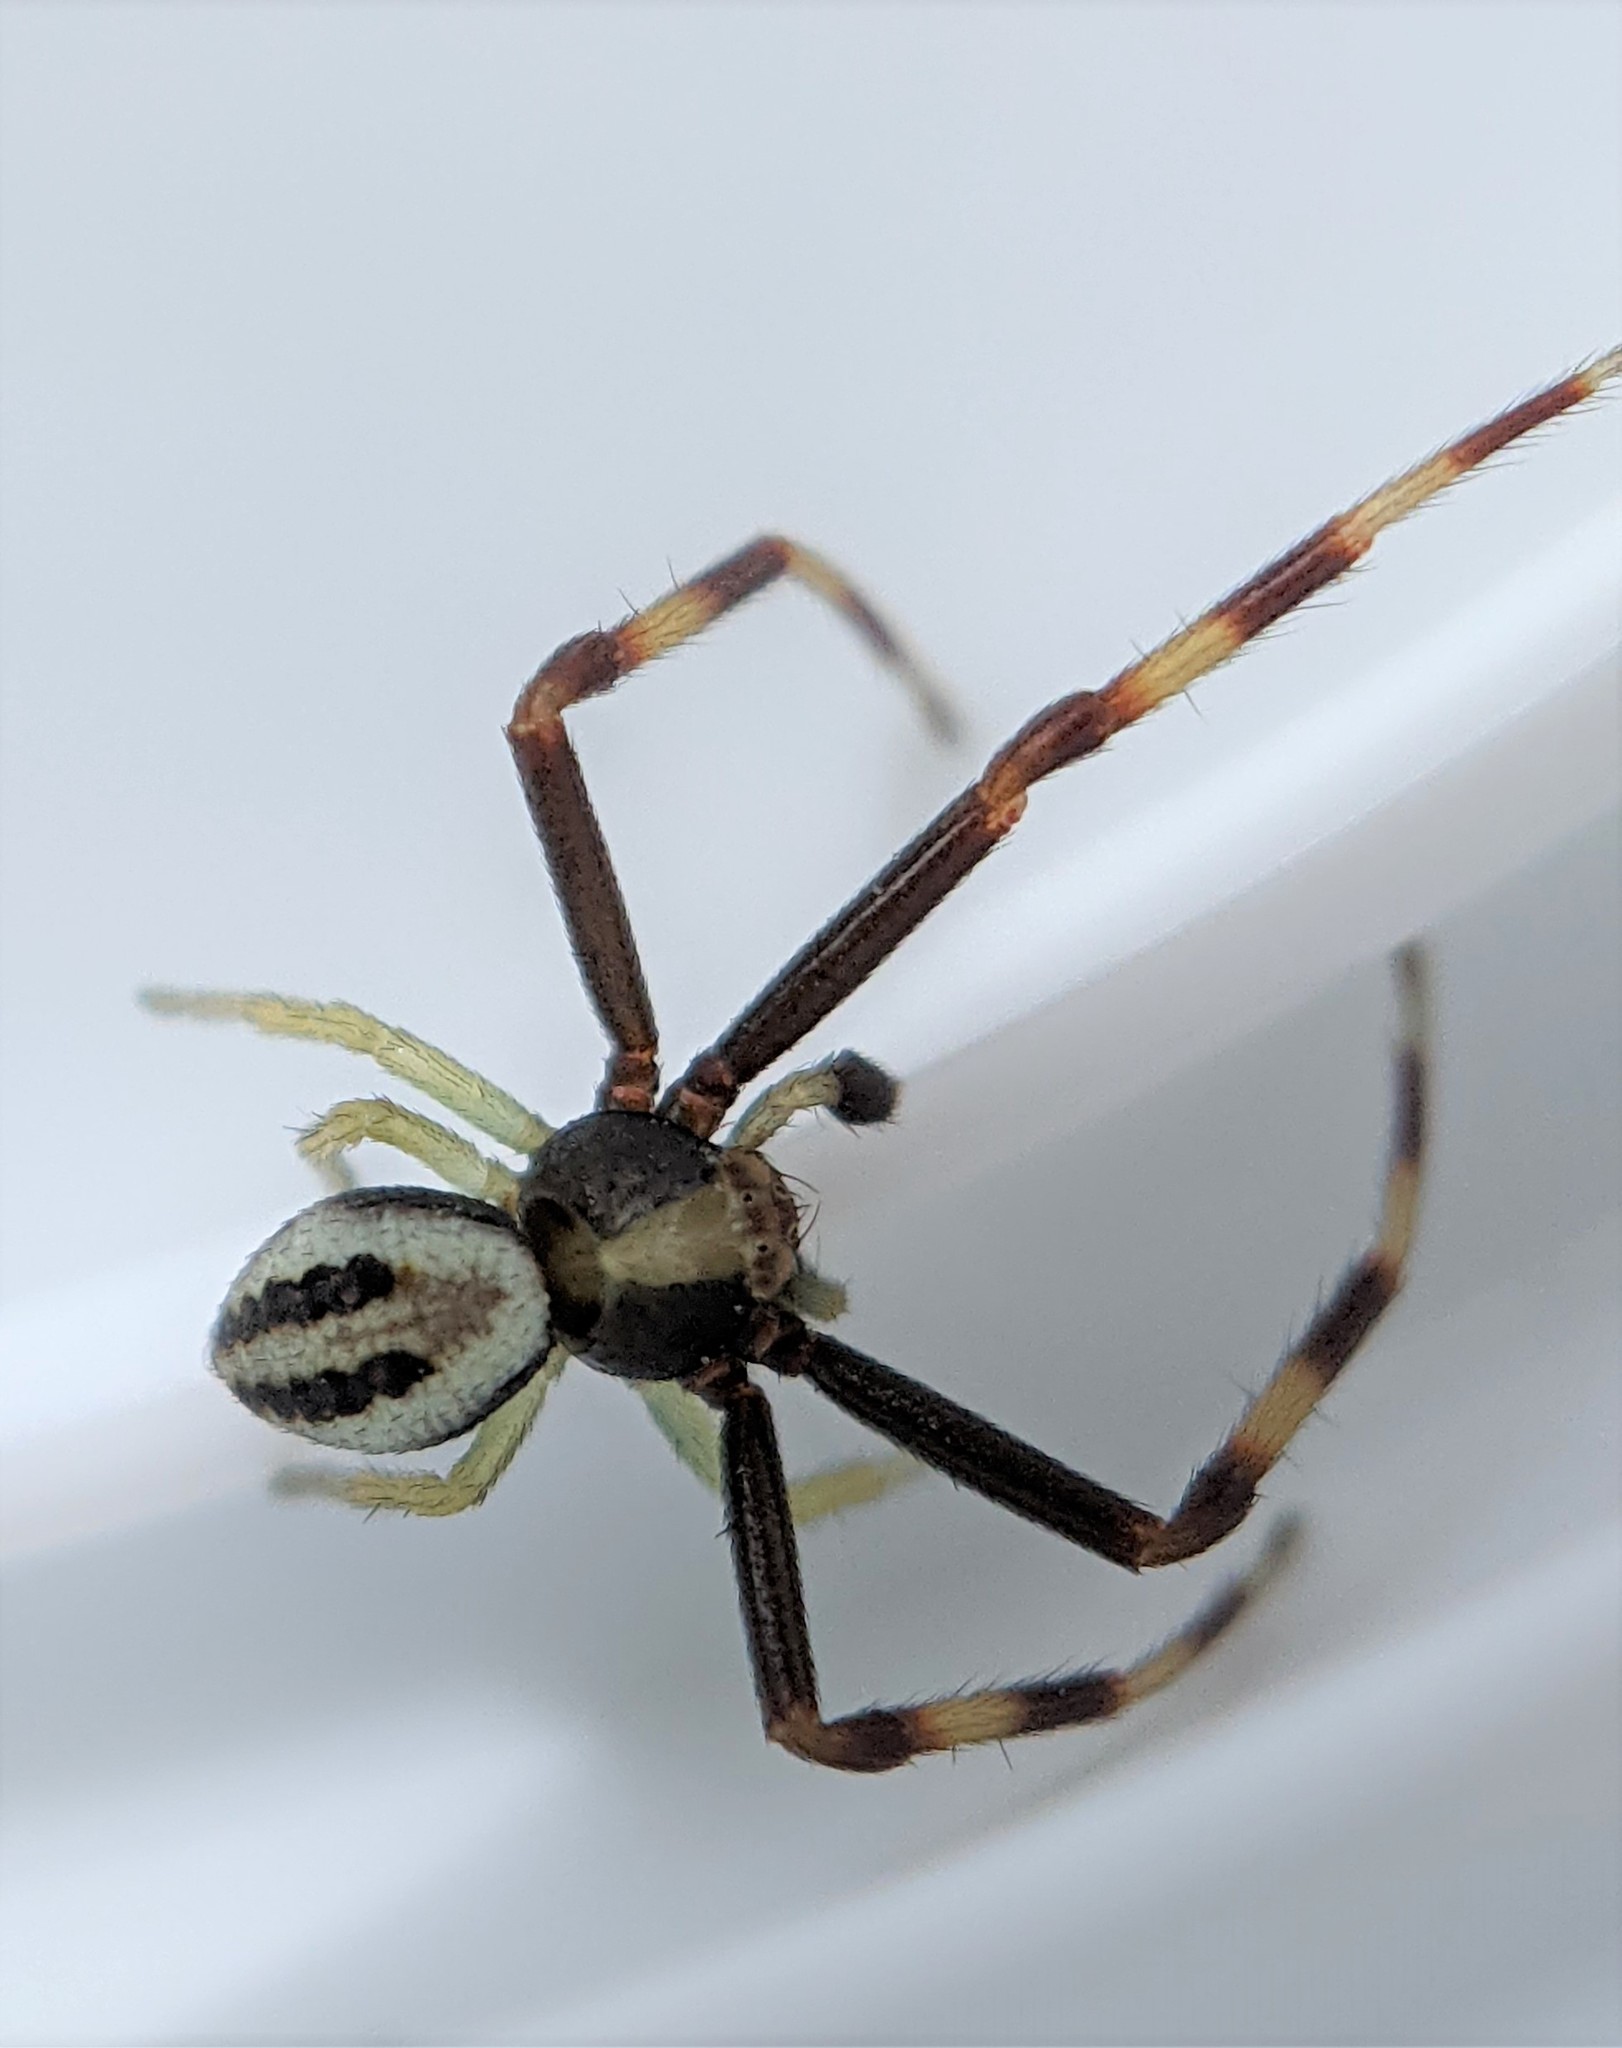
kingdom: Animalia
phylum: Arthropoda
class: Arachnida
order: Araneae
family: Thomisidae
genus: Misumena
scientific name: Misumena vatia
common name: Goldenrod crab spider
